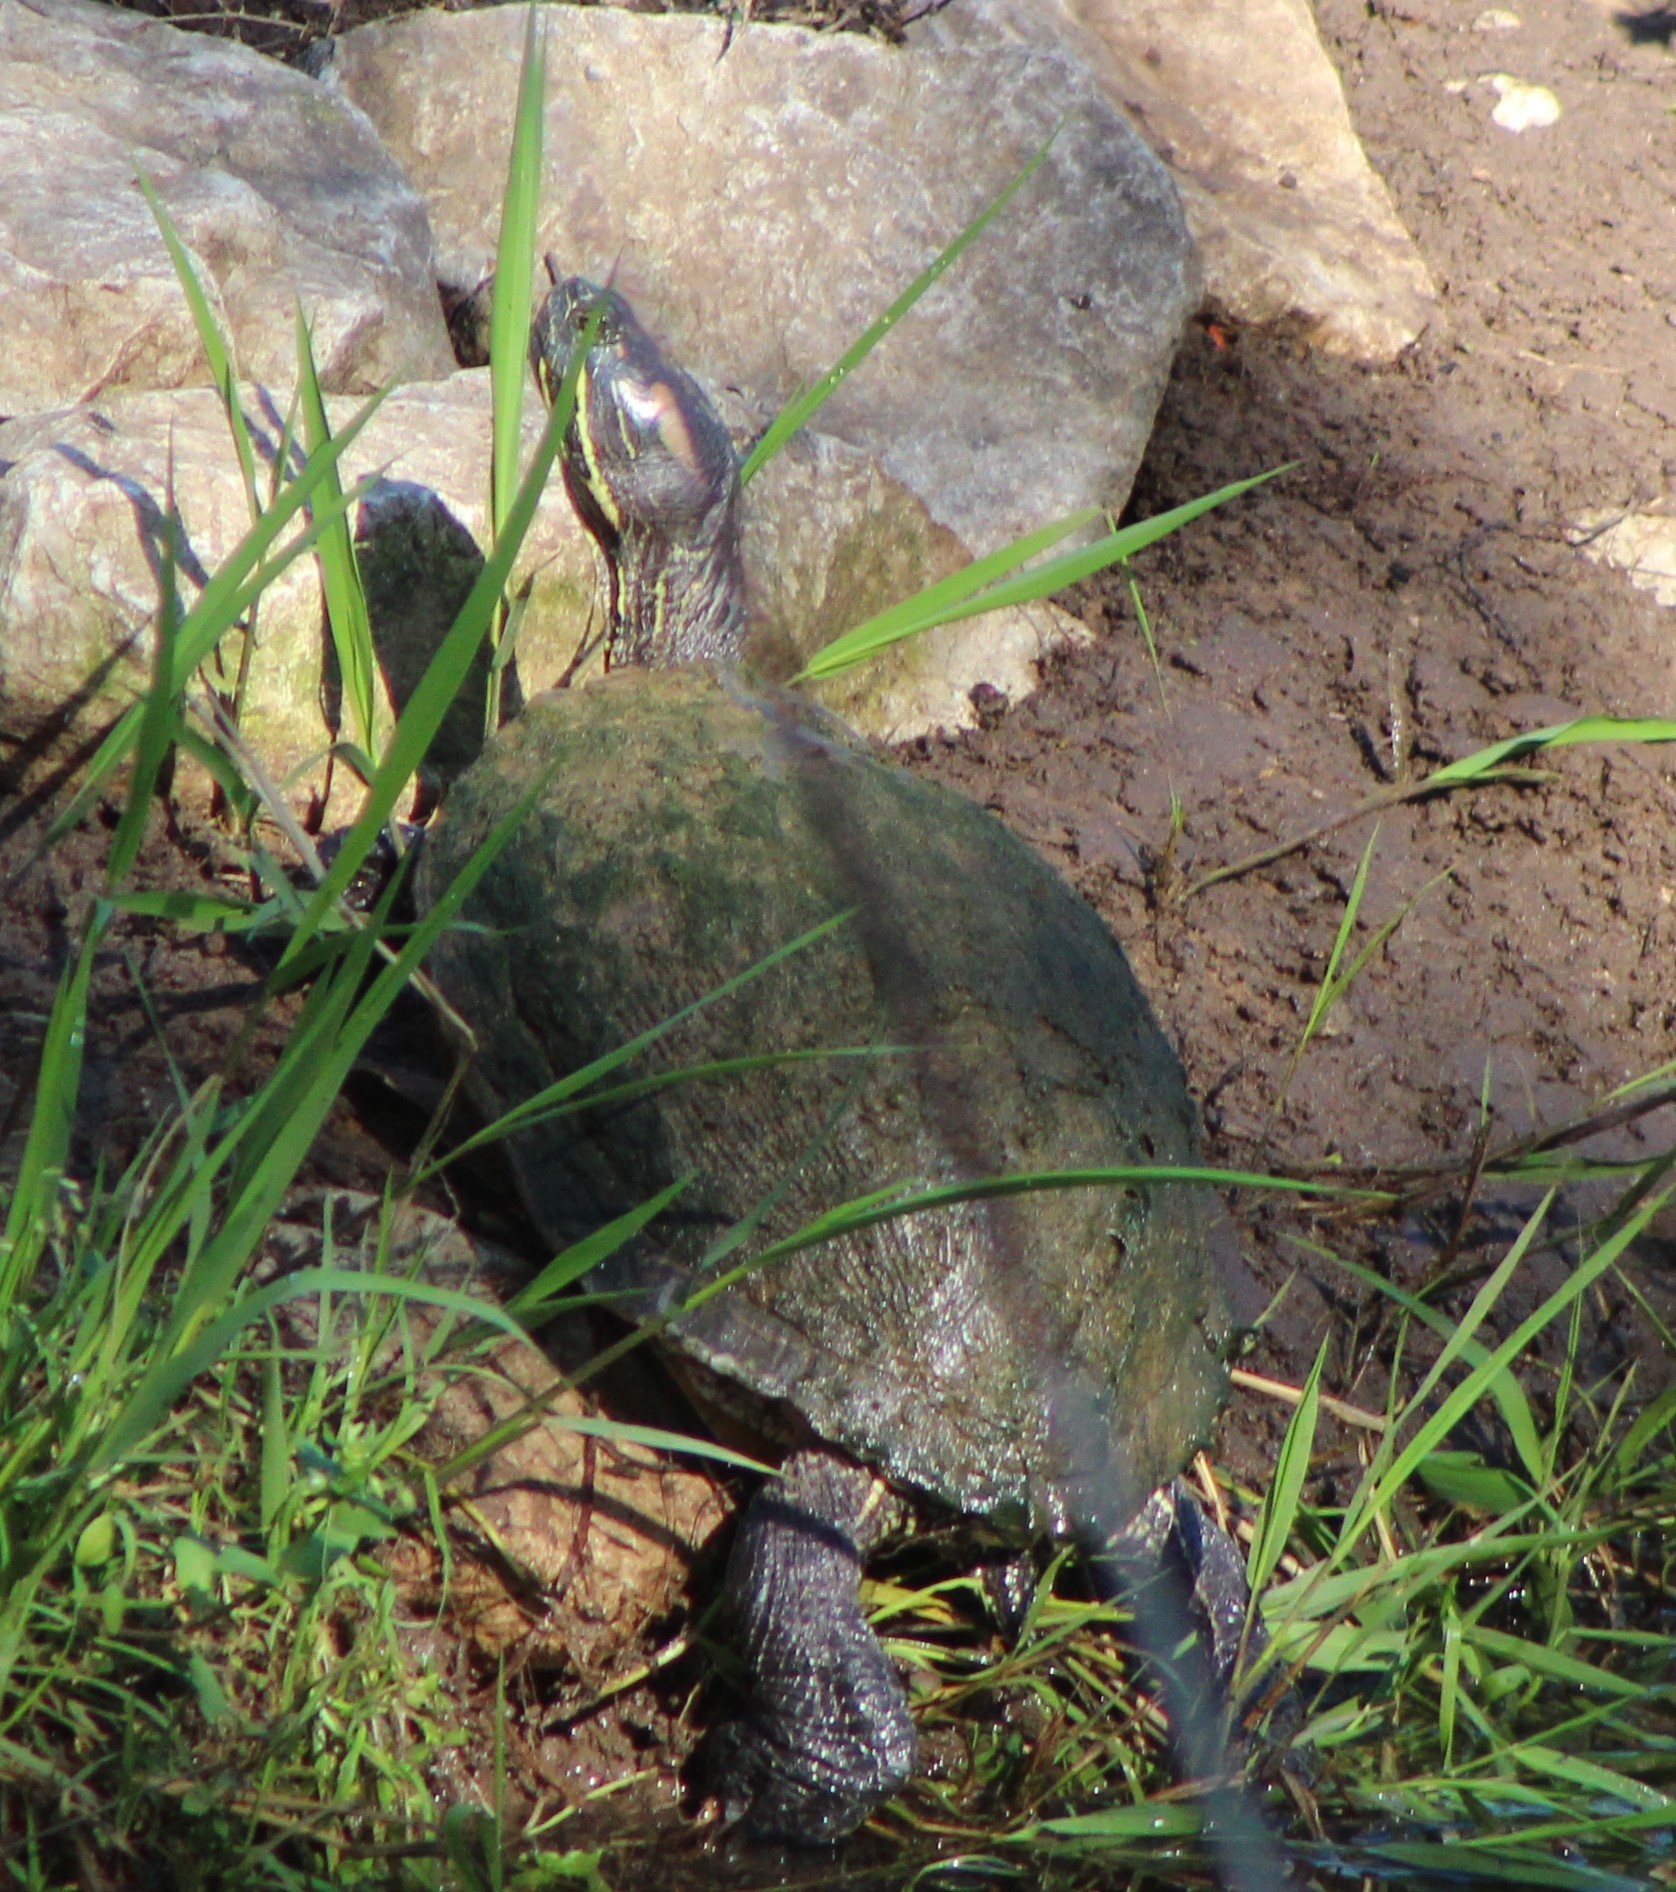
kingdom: Animalia
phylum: Chordata
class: Testudines
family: Emydidae
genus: Trachemys
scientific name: Trachemys scripta
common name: Slider
